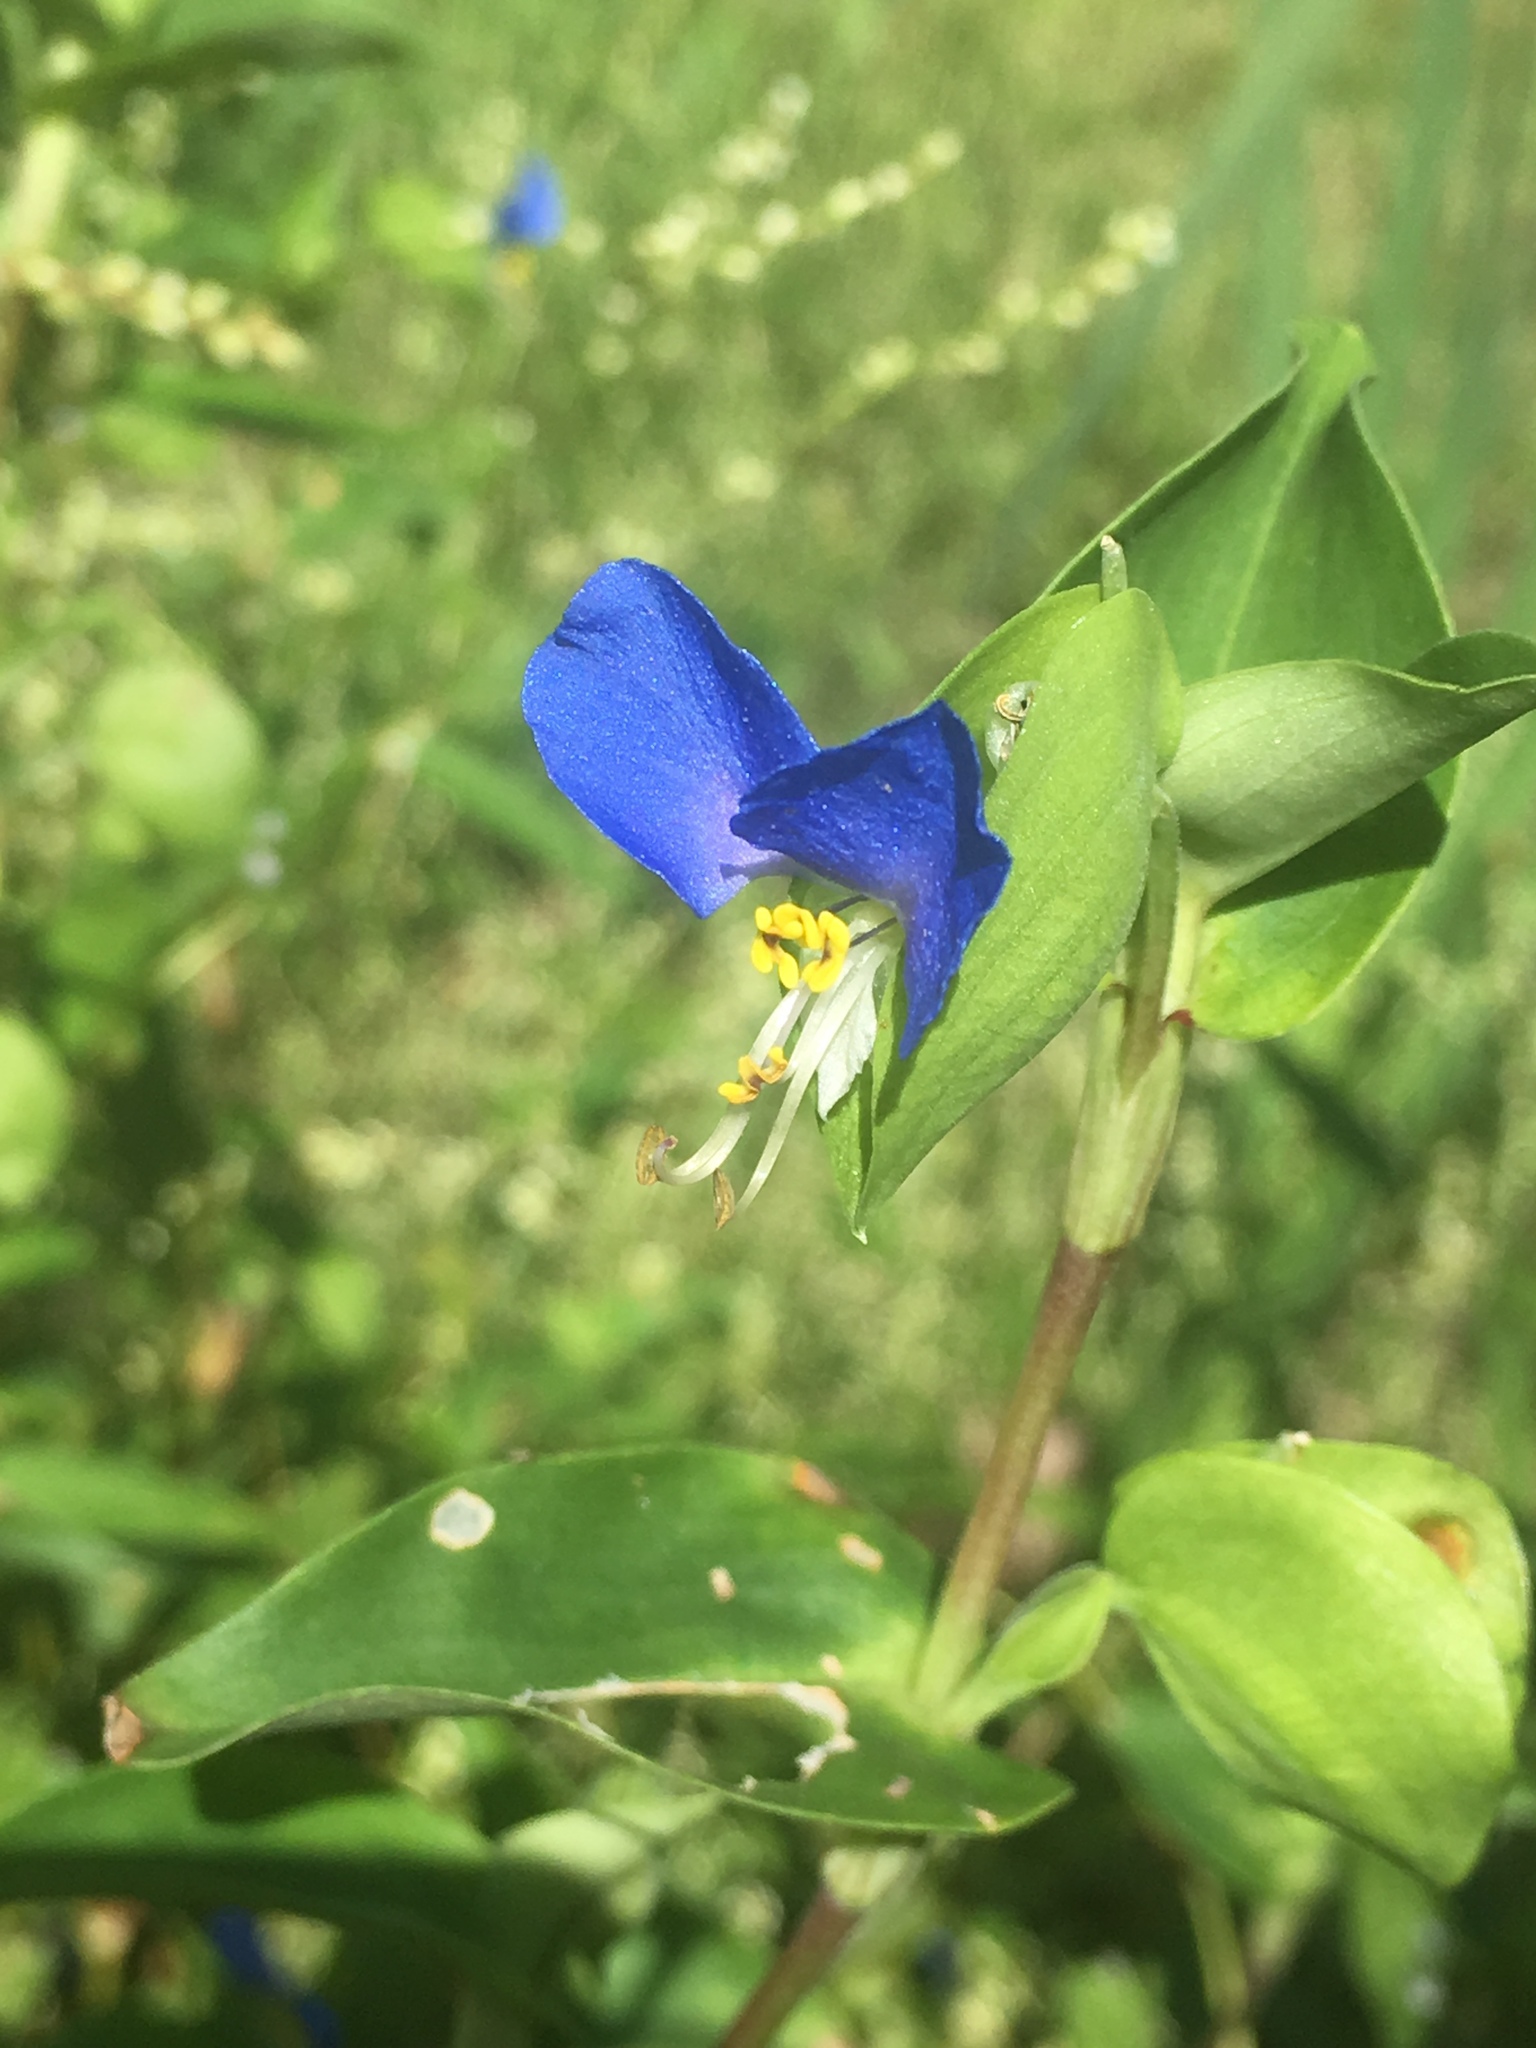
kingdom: Plantae
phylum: Tracheophyta
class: Liliopsida
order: Commelinales
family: Commelinaceae
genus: Commelina
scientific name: Commelina communis
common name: Asiatic dayflower
